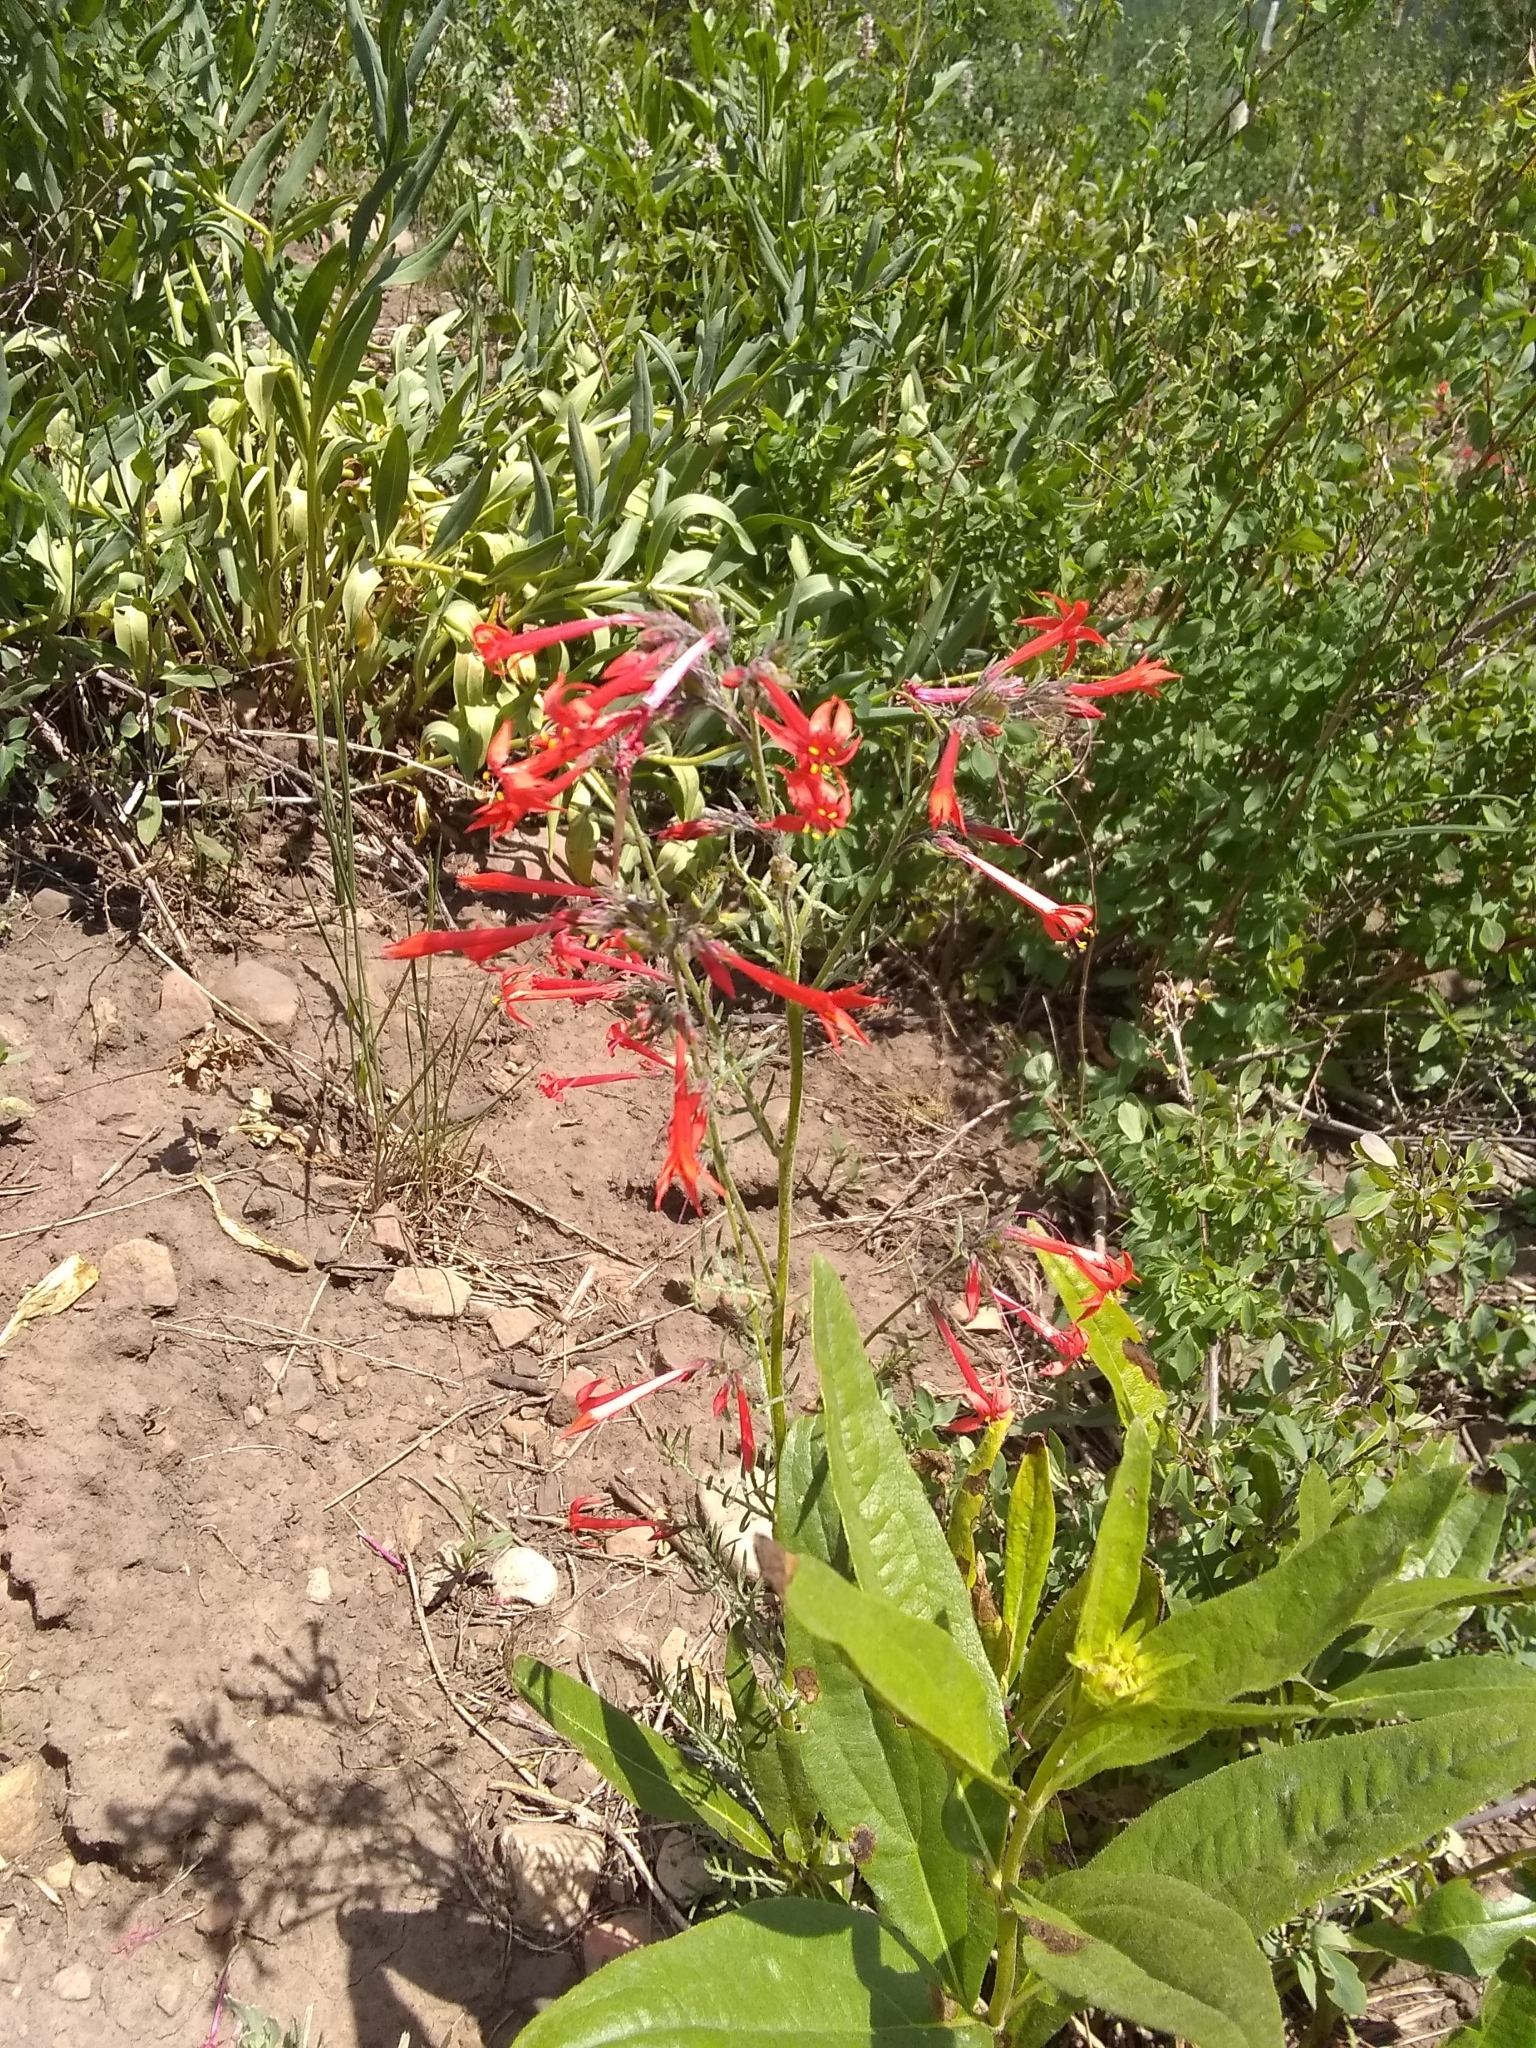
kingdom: Plantae
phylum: Tracheophyta
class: Magnoliopsida
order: Ericales
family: Polemoniaceae
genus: Ipomopsis
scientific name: Ipomopsis aggregata
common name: Scarlet gilia
